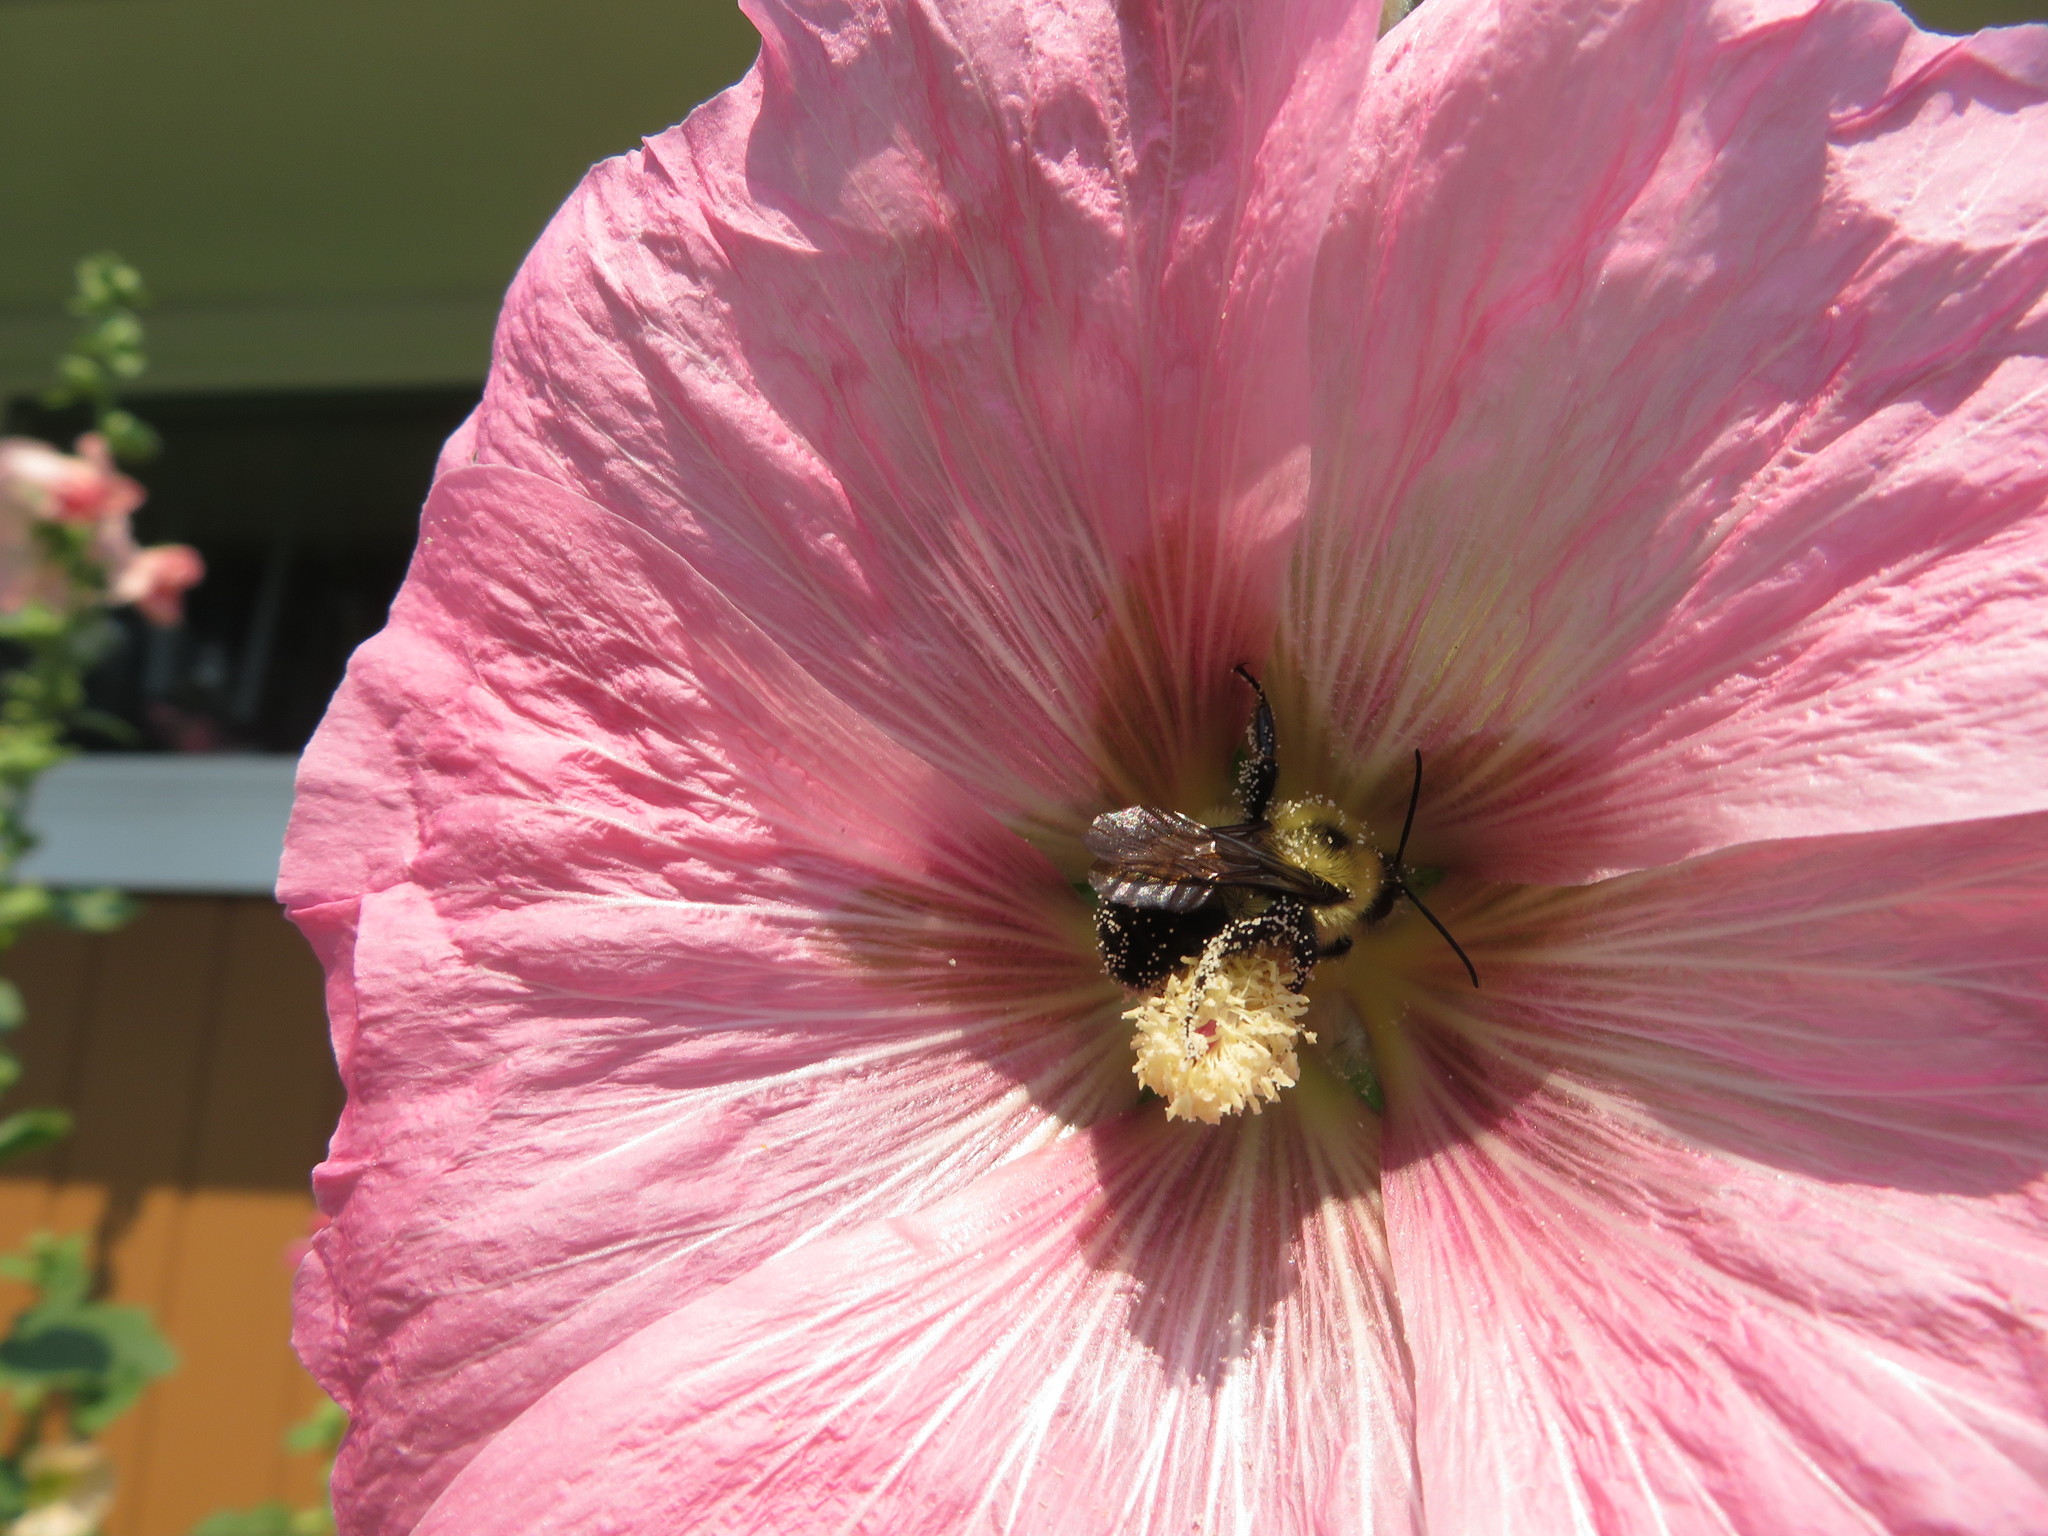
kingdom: Animalia
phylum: Arthropoda
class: Insecta
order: Hymenoptera
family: Apidae
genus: Bombus
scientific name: Bombus bimaculatus
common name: Two-spotted bumble bee
